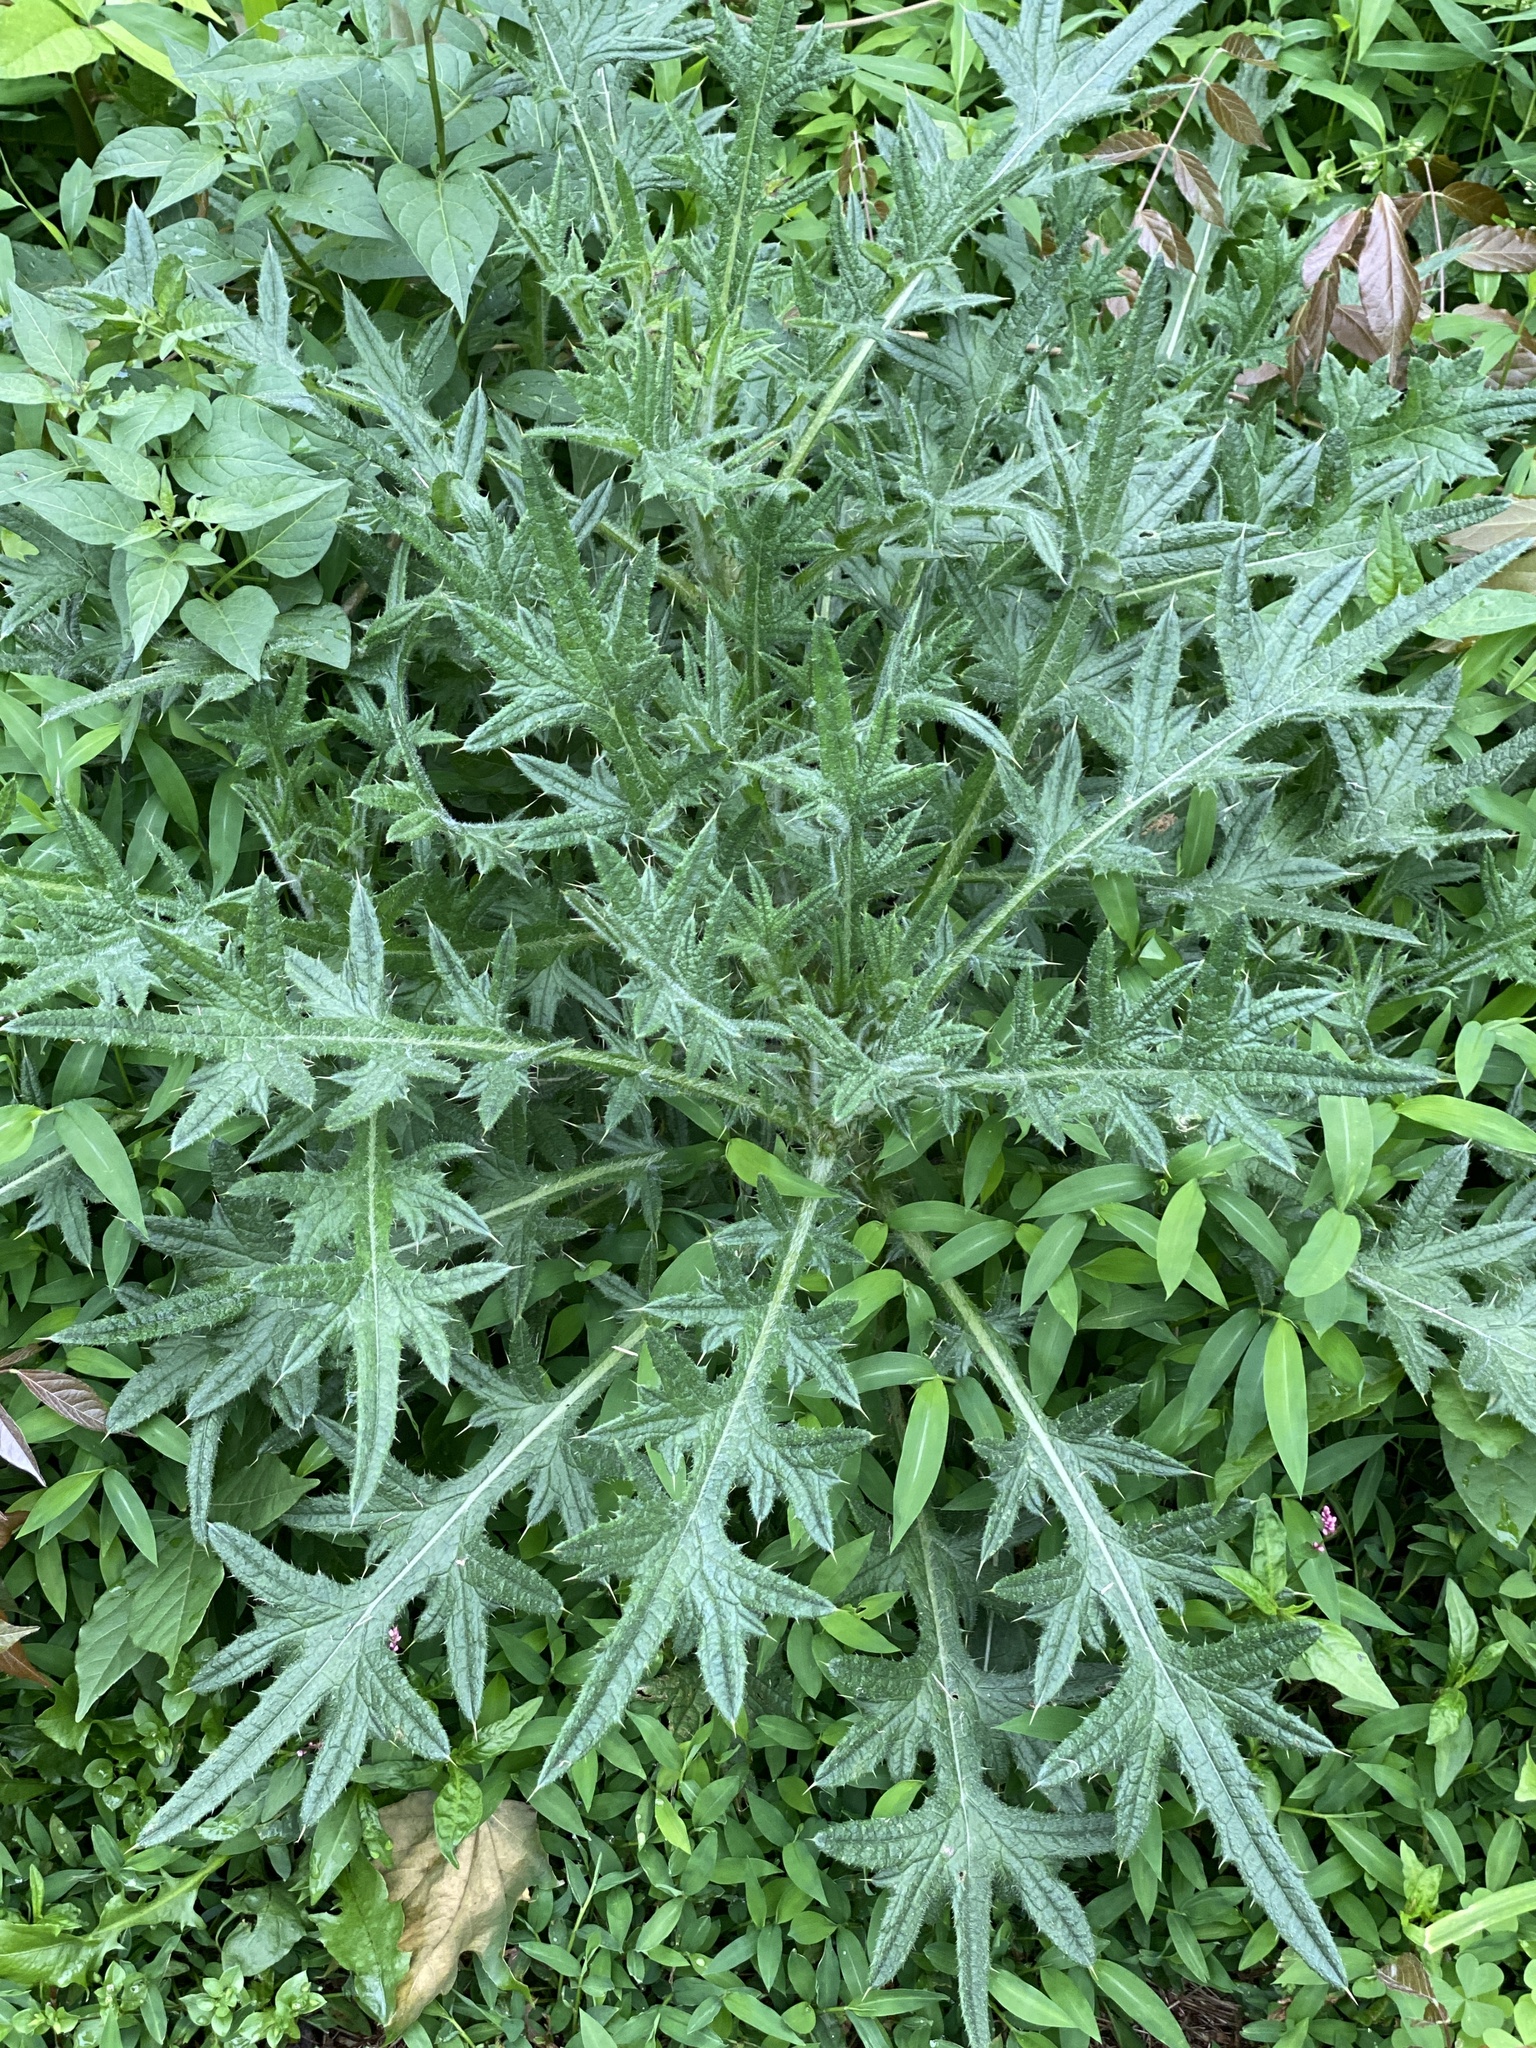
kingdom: Plantae
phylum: Tracheophyta
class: Magnoliopsida
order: Asterales
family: Asteraceae
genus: Cirsium
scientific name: Cirsium vulgare
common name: Bull thistle
